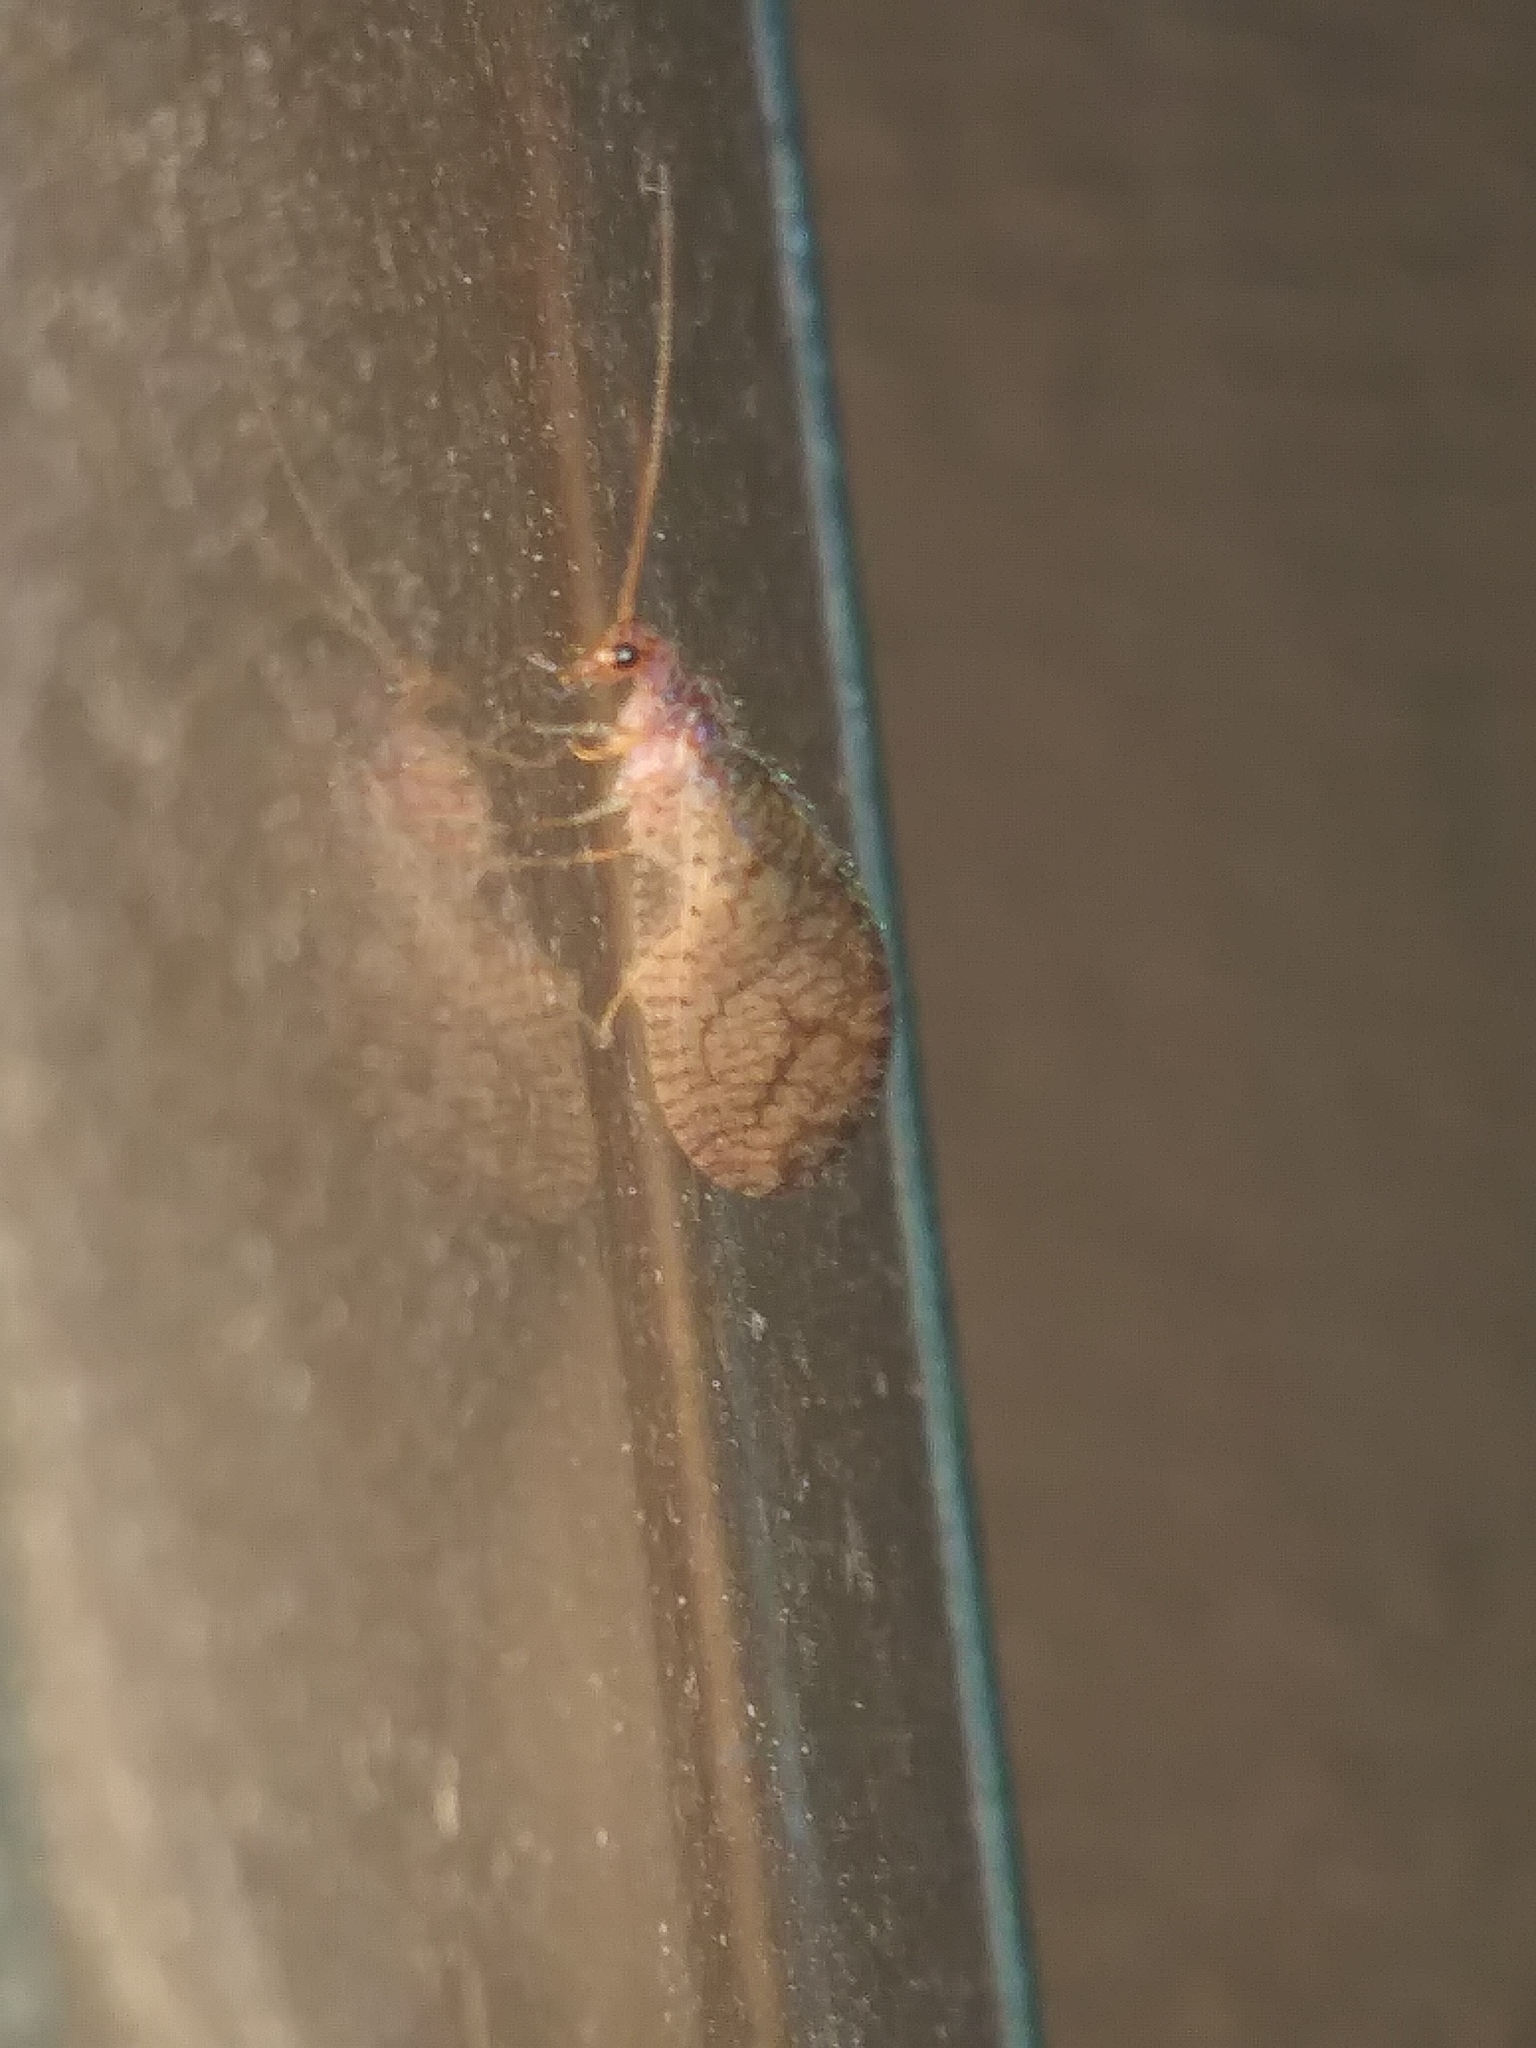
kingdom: Animalia
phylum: Arthropoda
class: Insecta
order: Neuroptera
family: Hemerobiidae
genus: Micromus
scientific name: Micromus posticus
